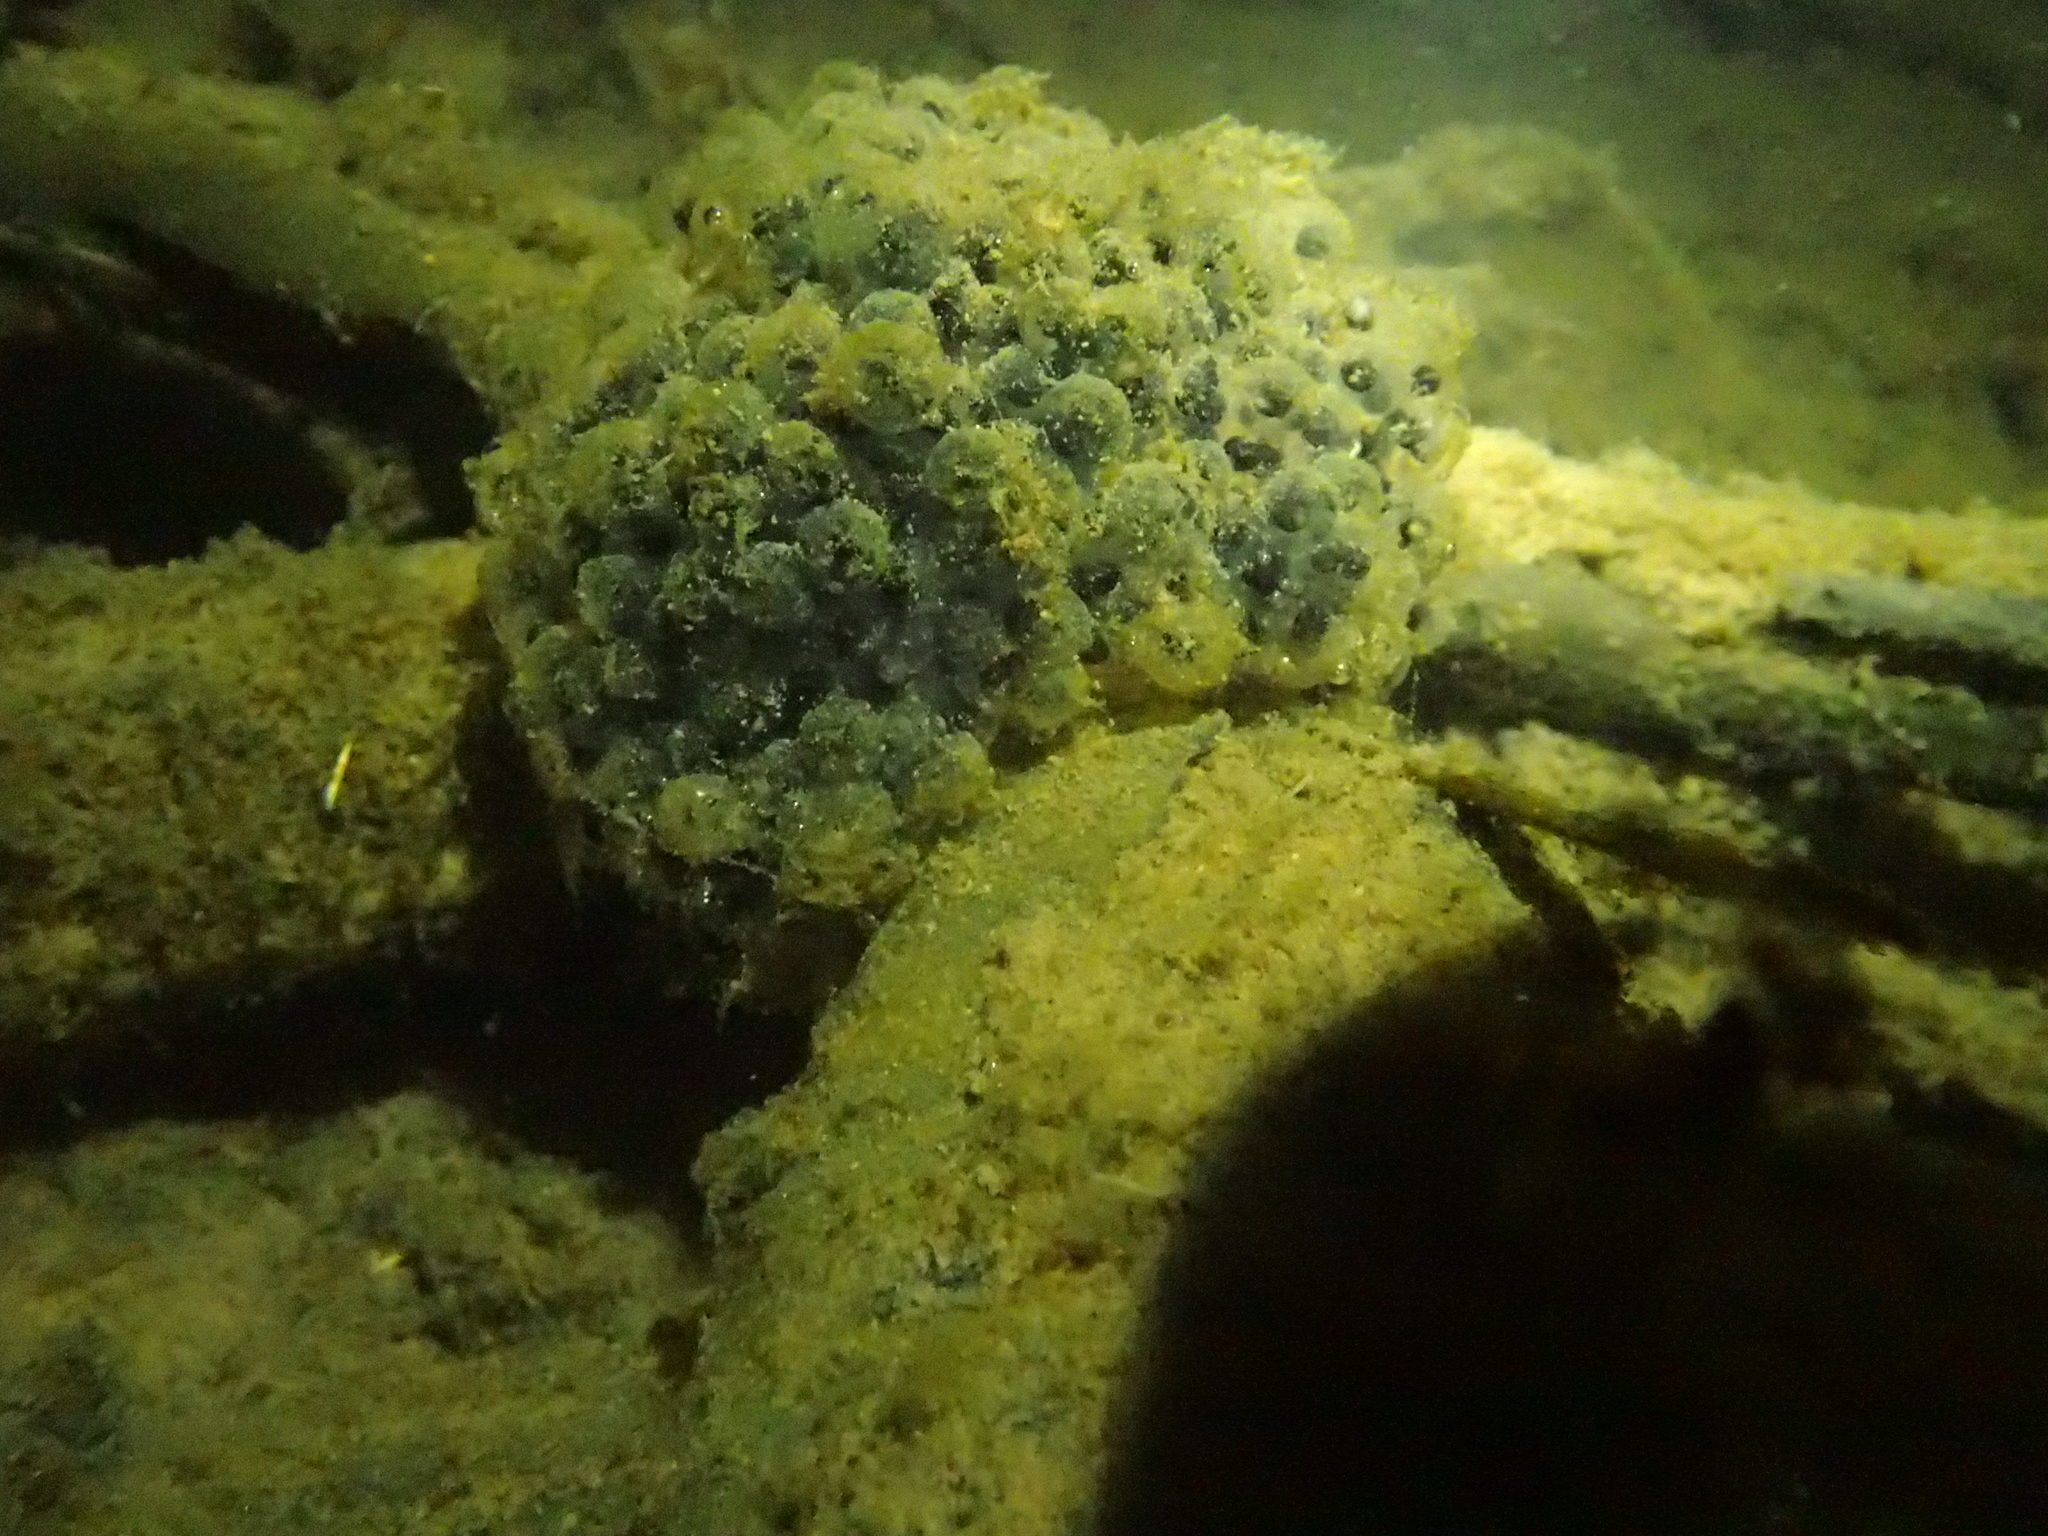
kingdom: Animalia
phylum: Chordata
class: Amphibia
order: Anura
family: Ranidae
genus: Lithobates
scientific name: Lithobates sylvaticus
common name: Wood frog
